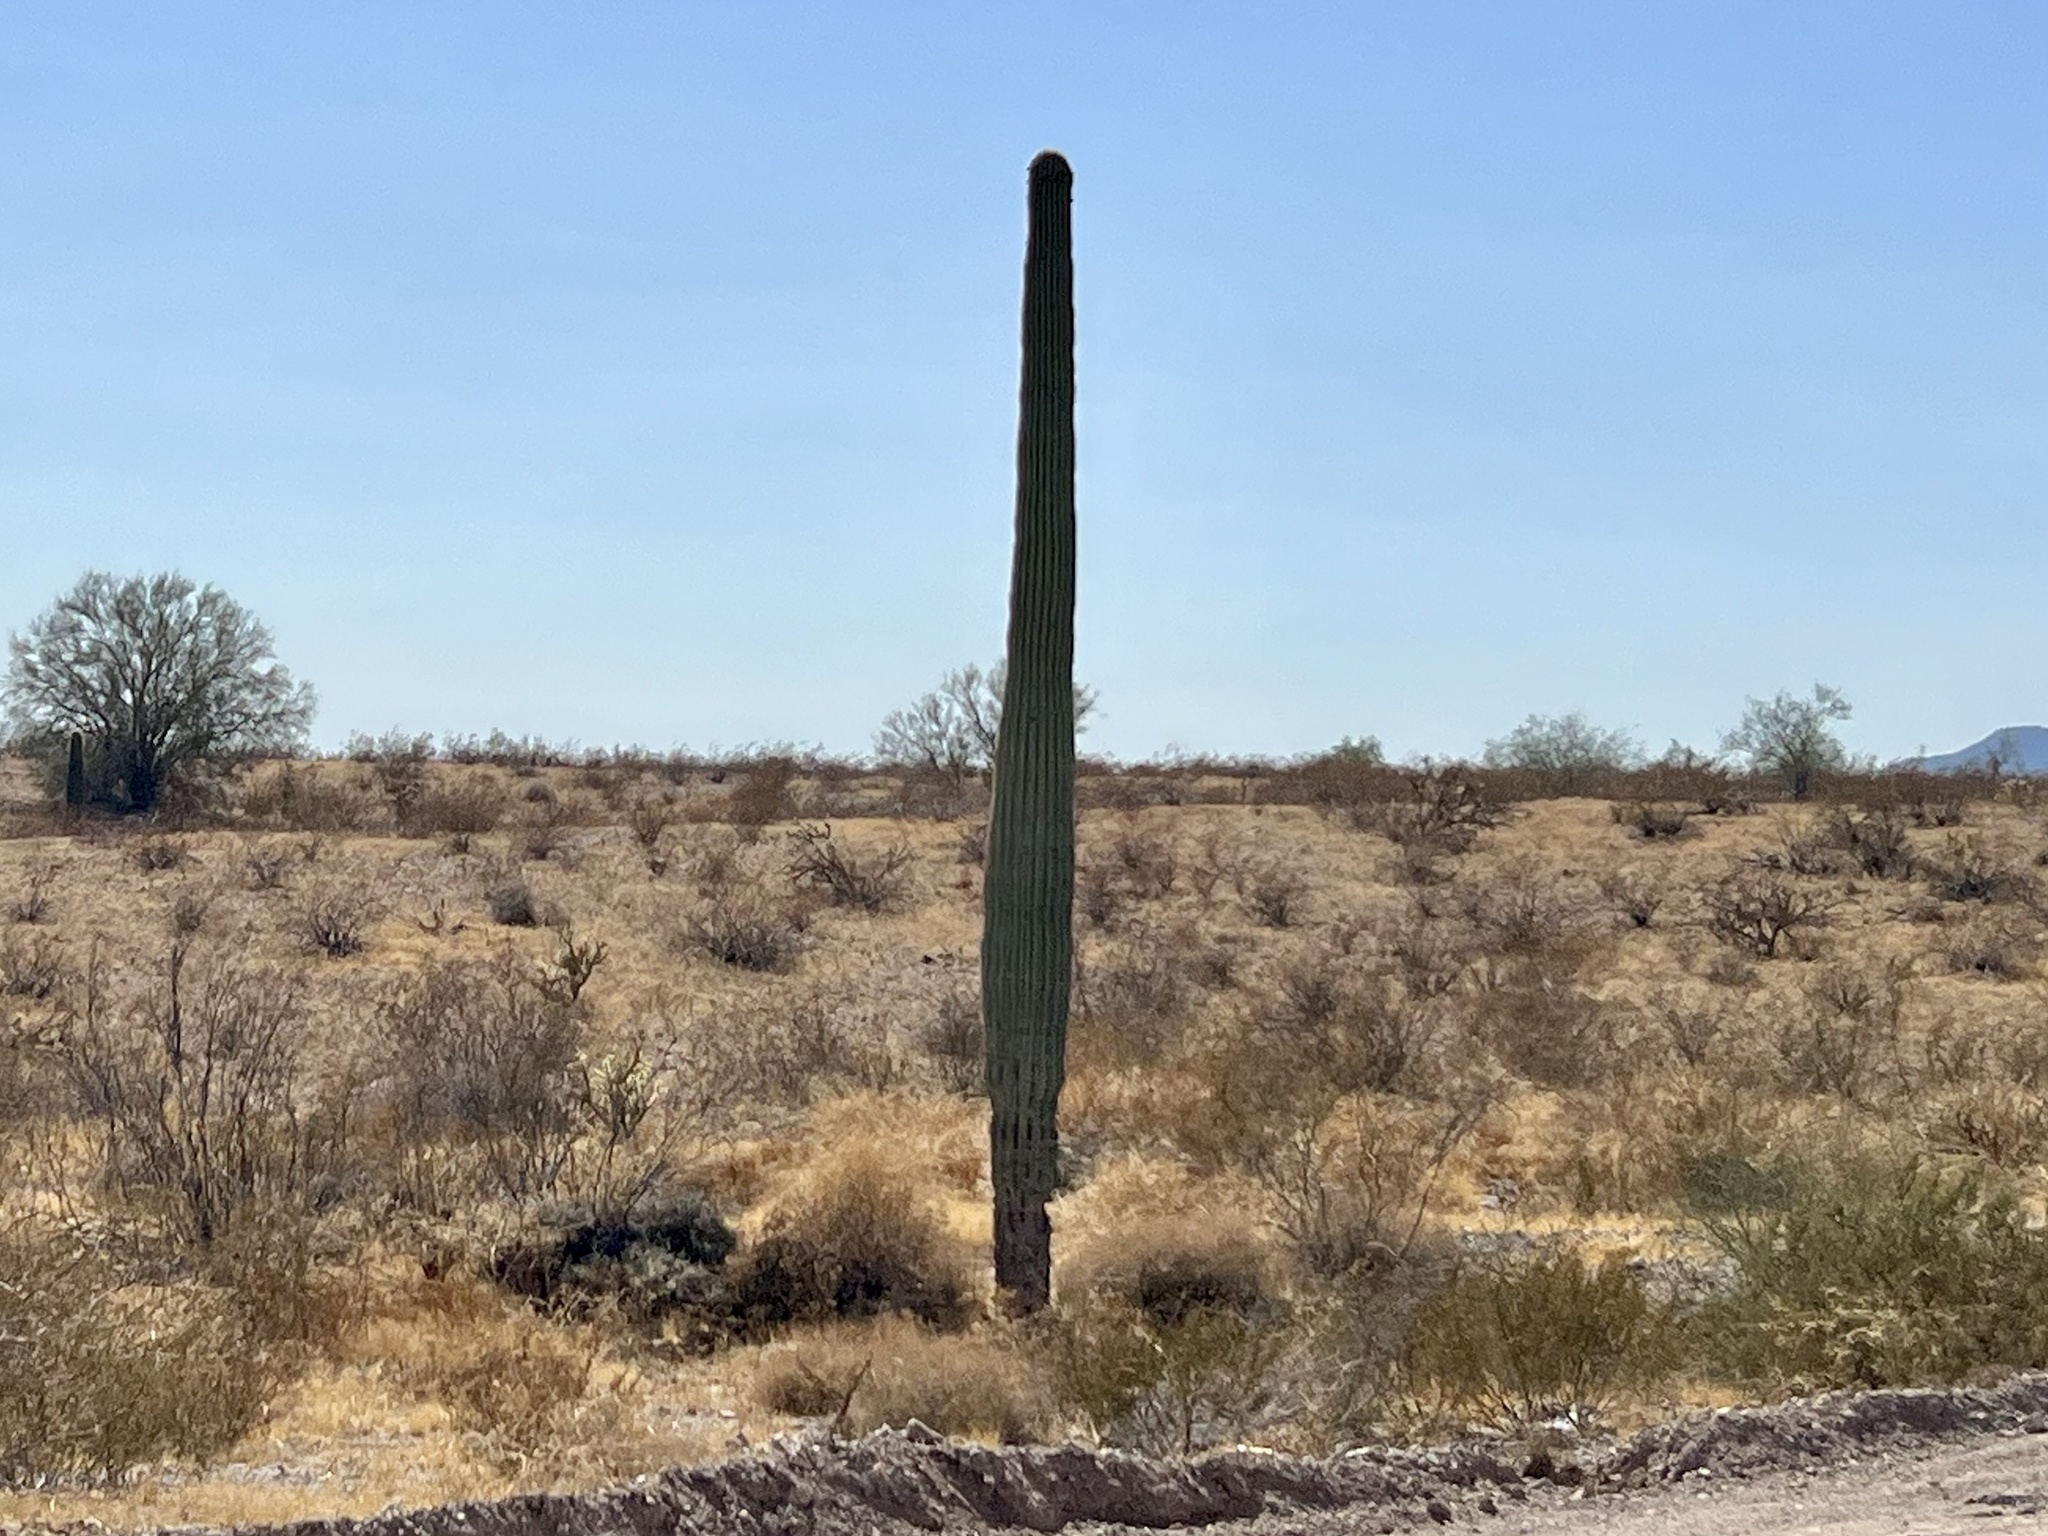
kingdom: Plantae
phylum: Tracheophyta
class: Magnoliopsida
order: Caryophyllales
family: Cactaceae
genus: Carnegiea
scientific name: Carnegiea gigantea
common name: Saguaro
